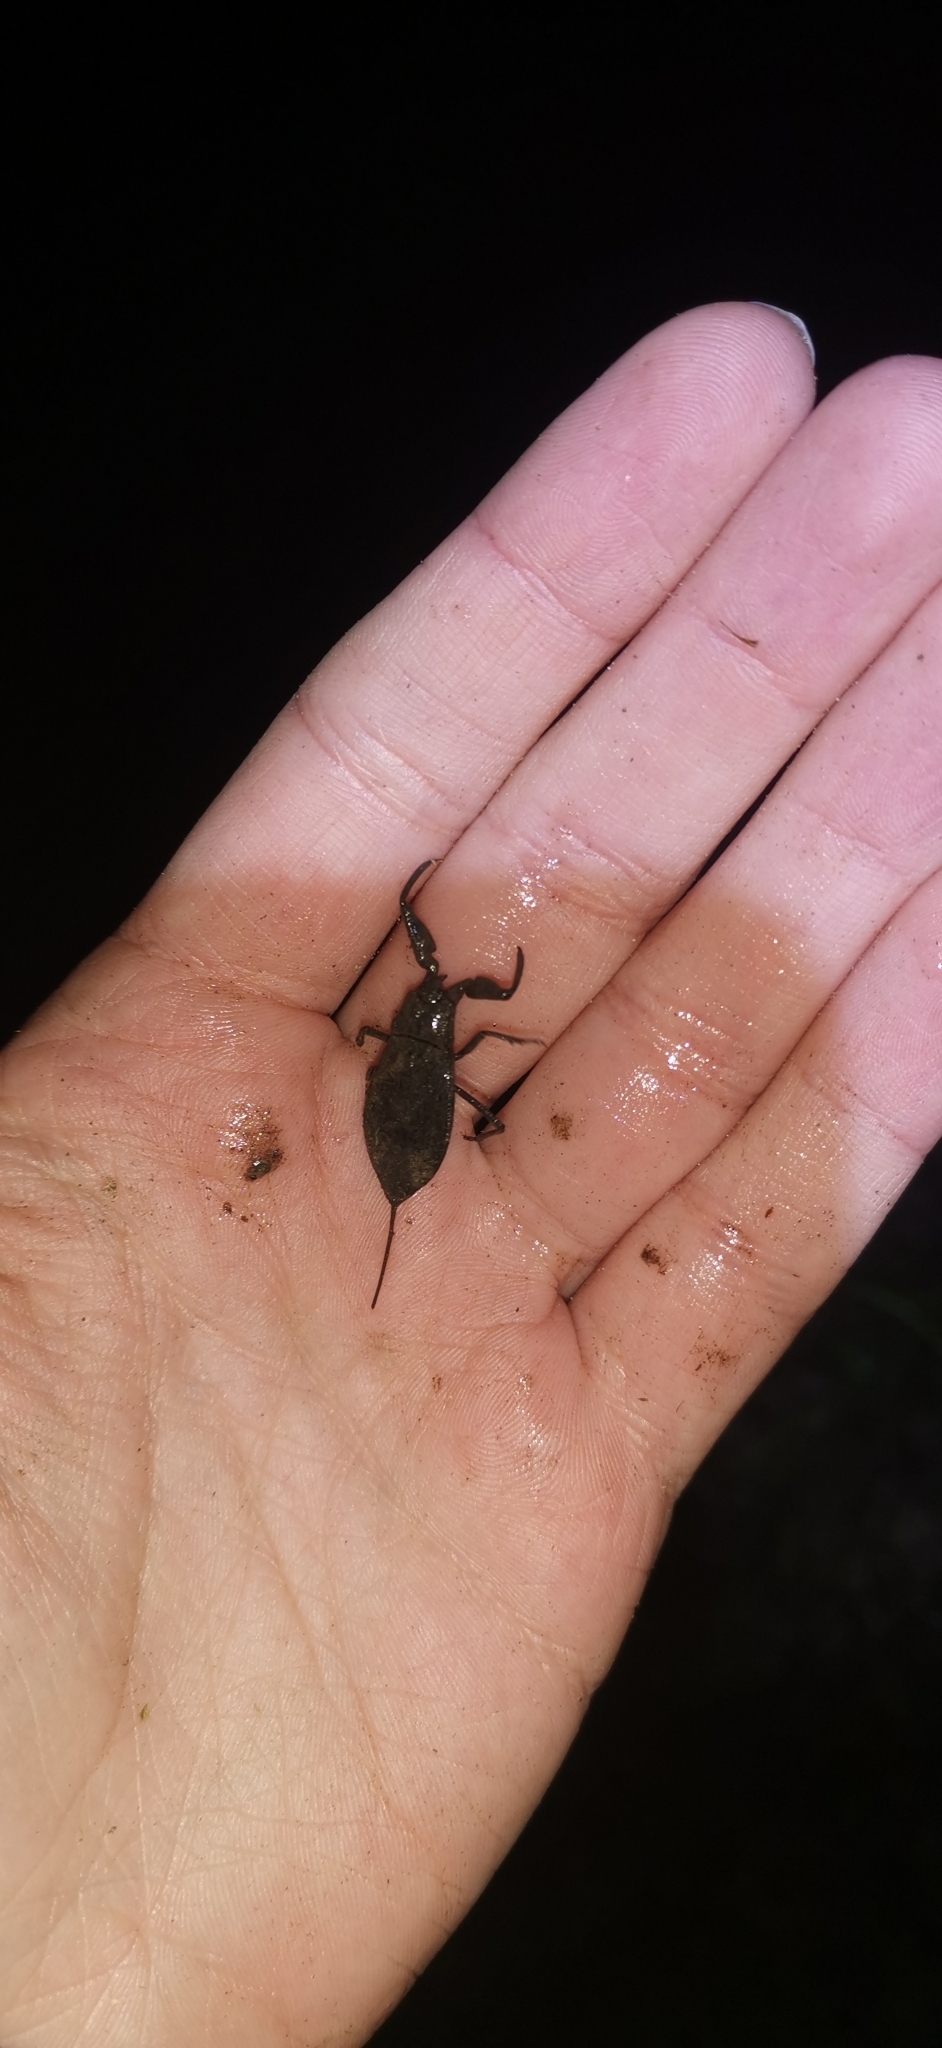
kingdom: Animalia
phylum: Arthropoda
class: Insecta
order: Hemiptera
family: Nepidae
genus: Nepa
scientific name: Nepa cinerea
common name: Water scorpion
